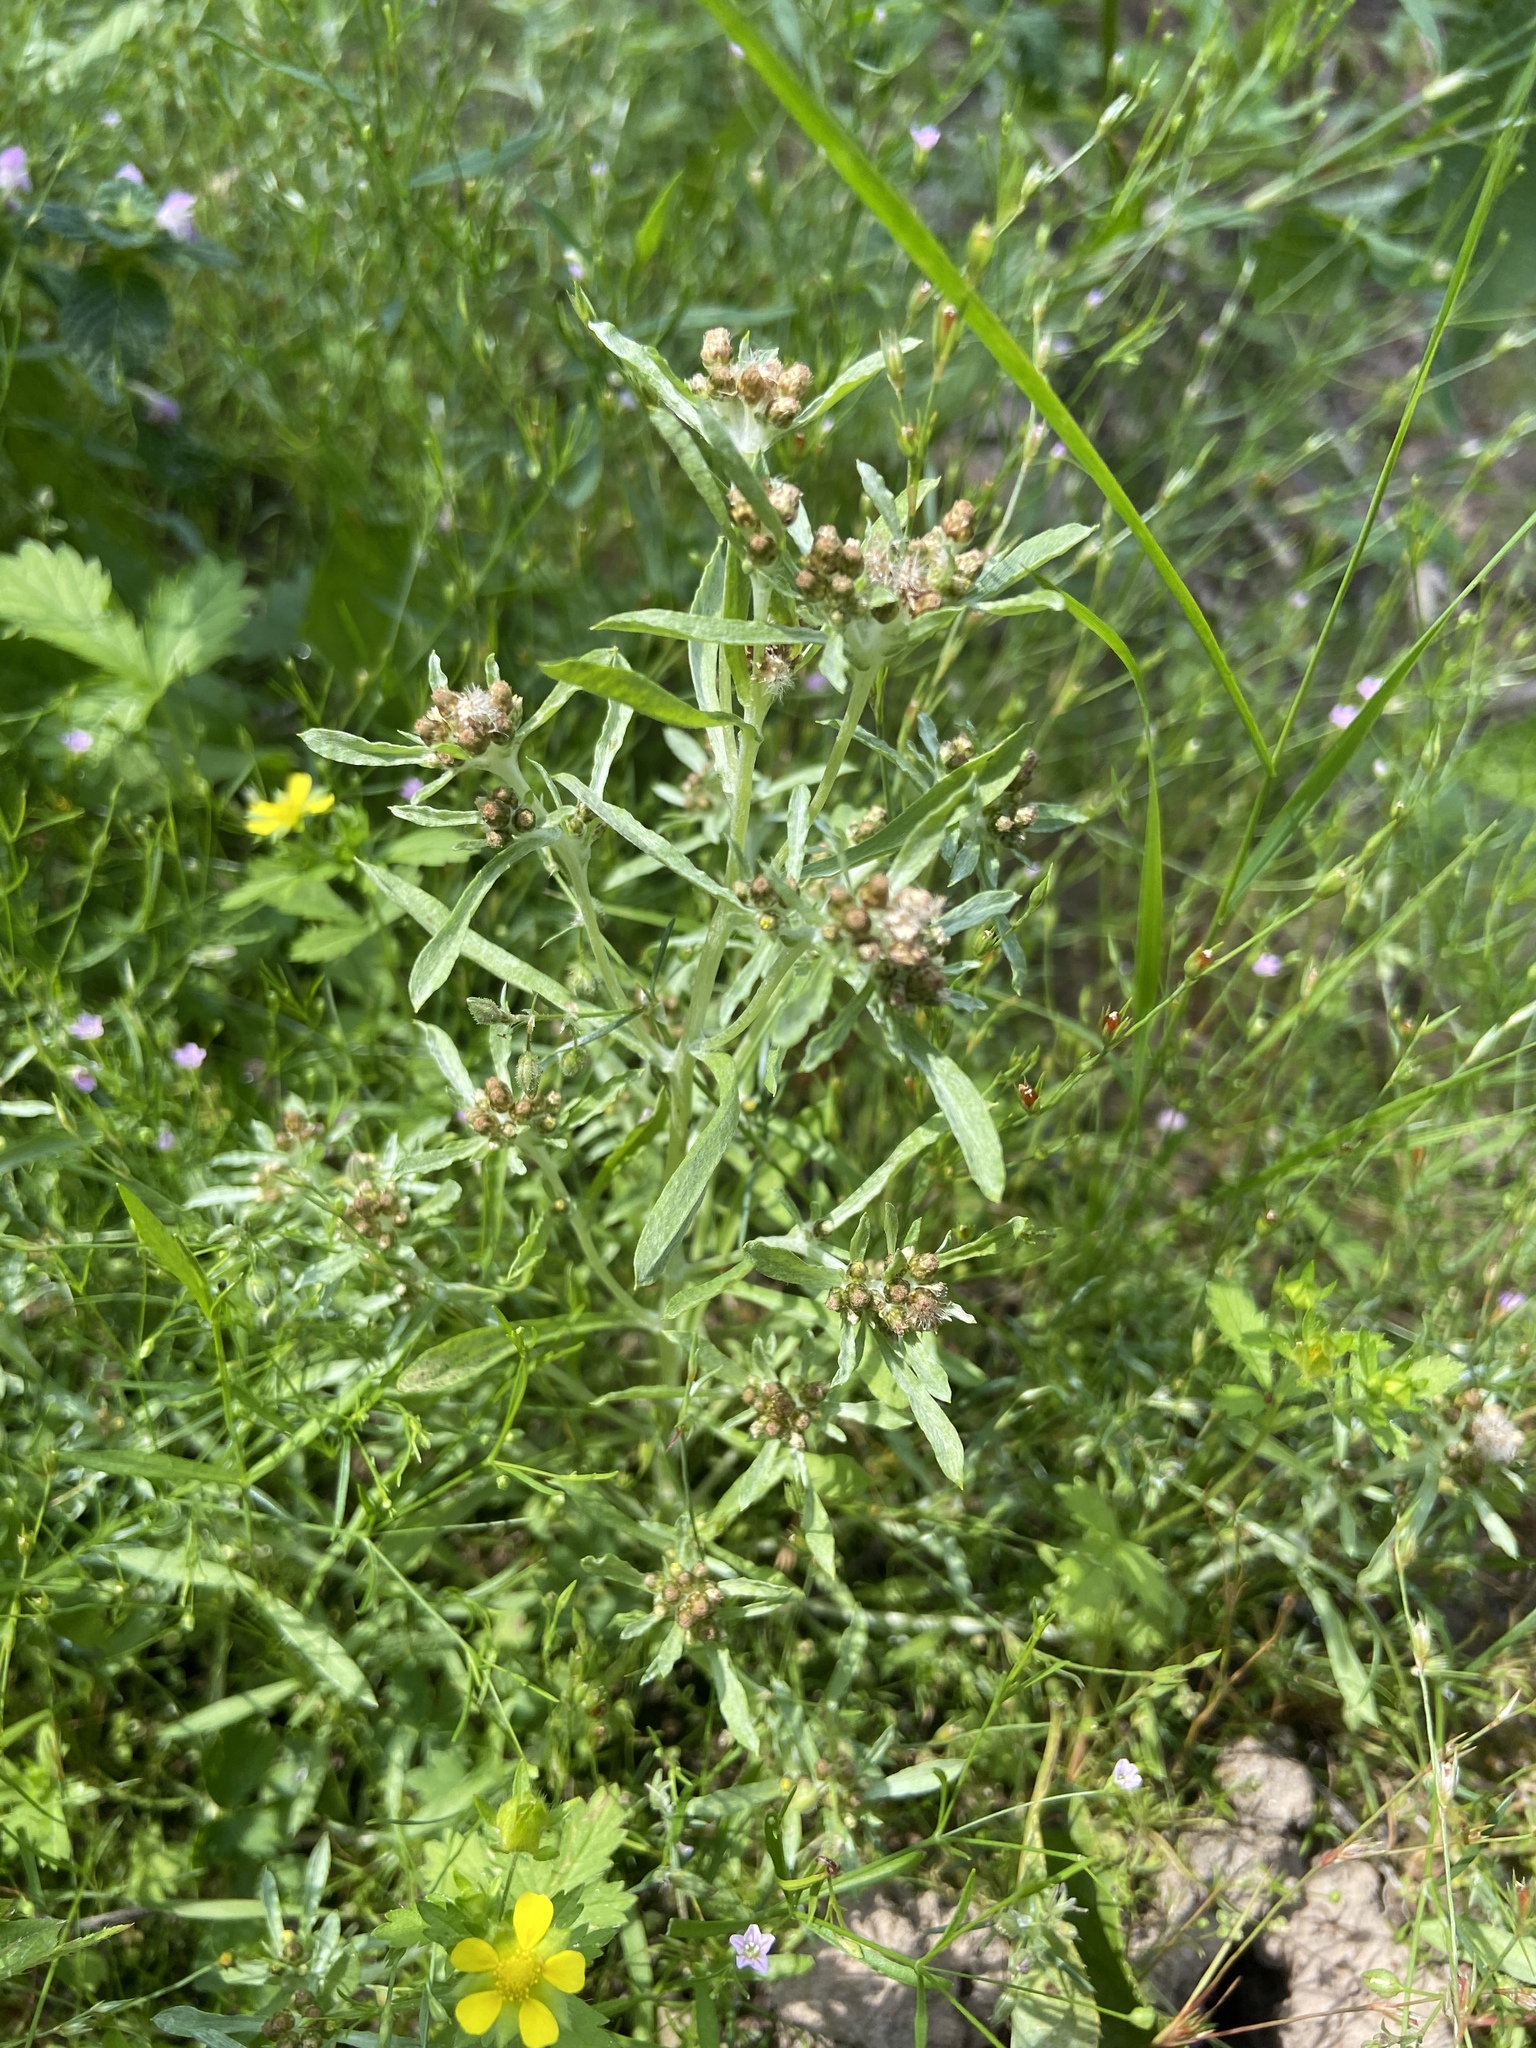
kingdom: Plantae
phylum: Tracheophyta
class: Magnoliopsida
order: Asterales
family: Asteraceae
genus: Gnaphalium
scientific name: Gnaphalium uliginosum
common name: Marsh cudweed
